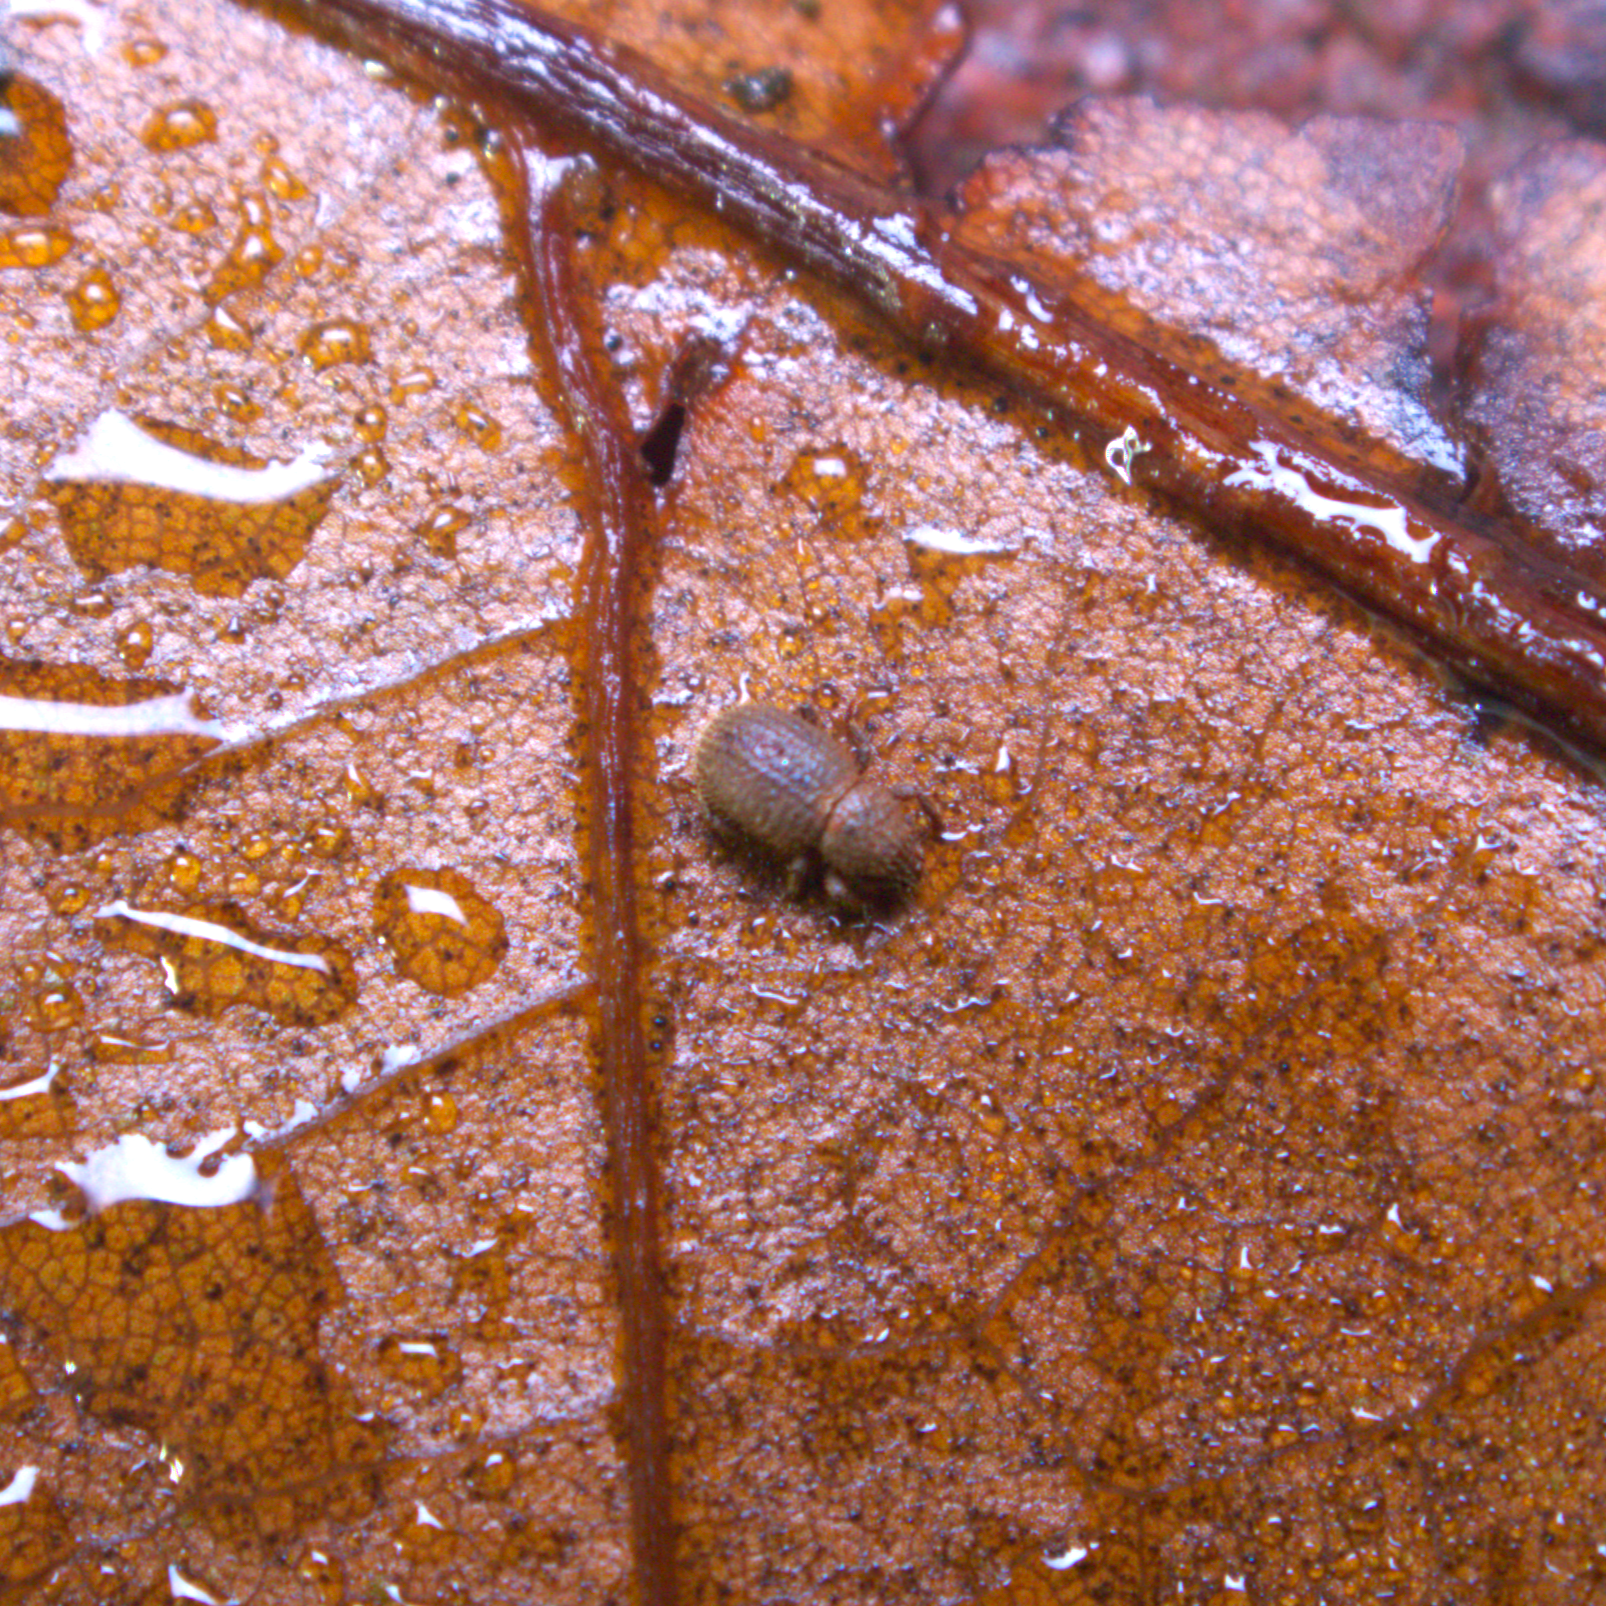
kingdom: Animalia
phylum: Arthropoda
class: Insecta
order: Coleoptera
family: Curculionidae
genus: Trachyphloeosoma
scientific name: Trachyphloeosoma advena
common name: Weevil
